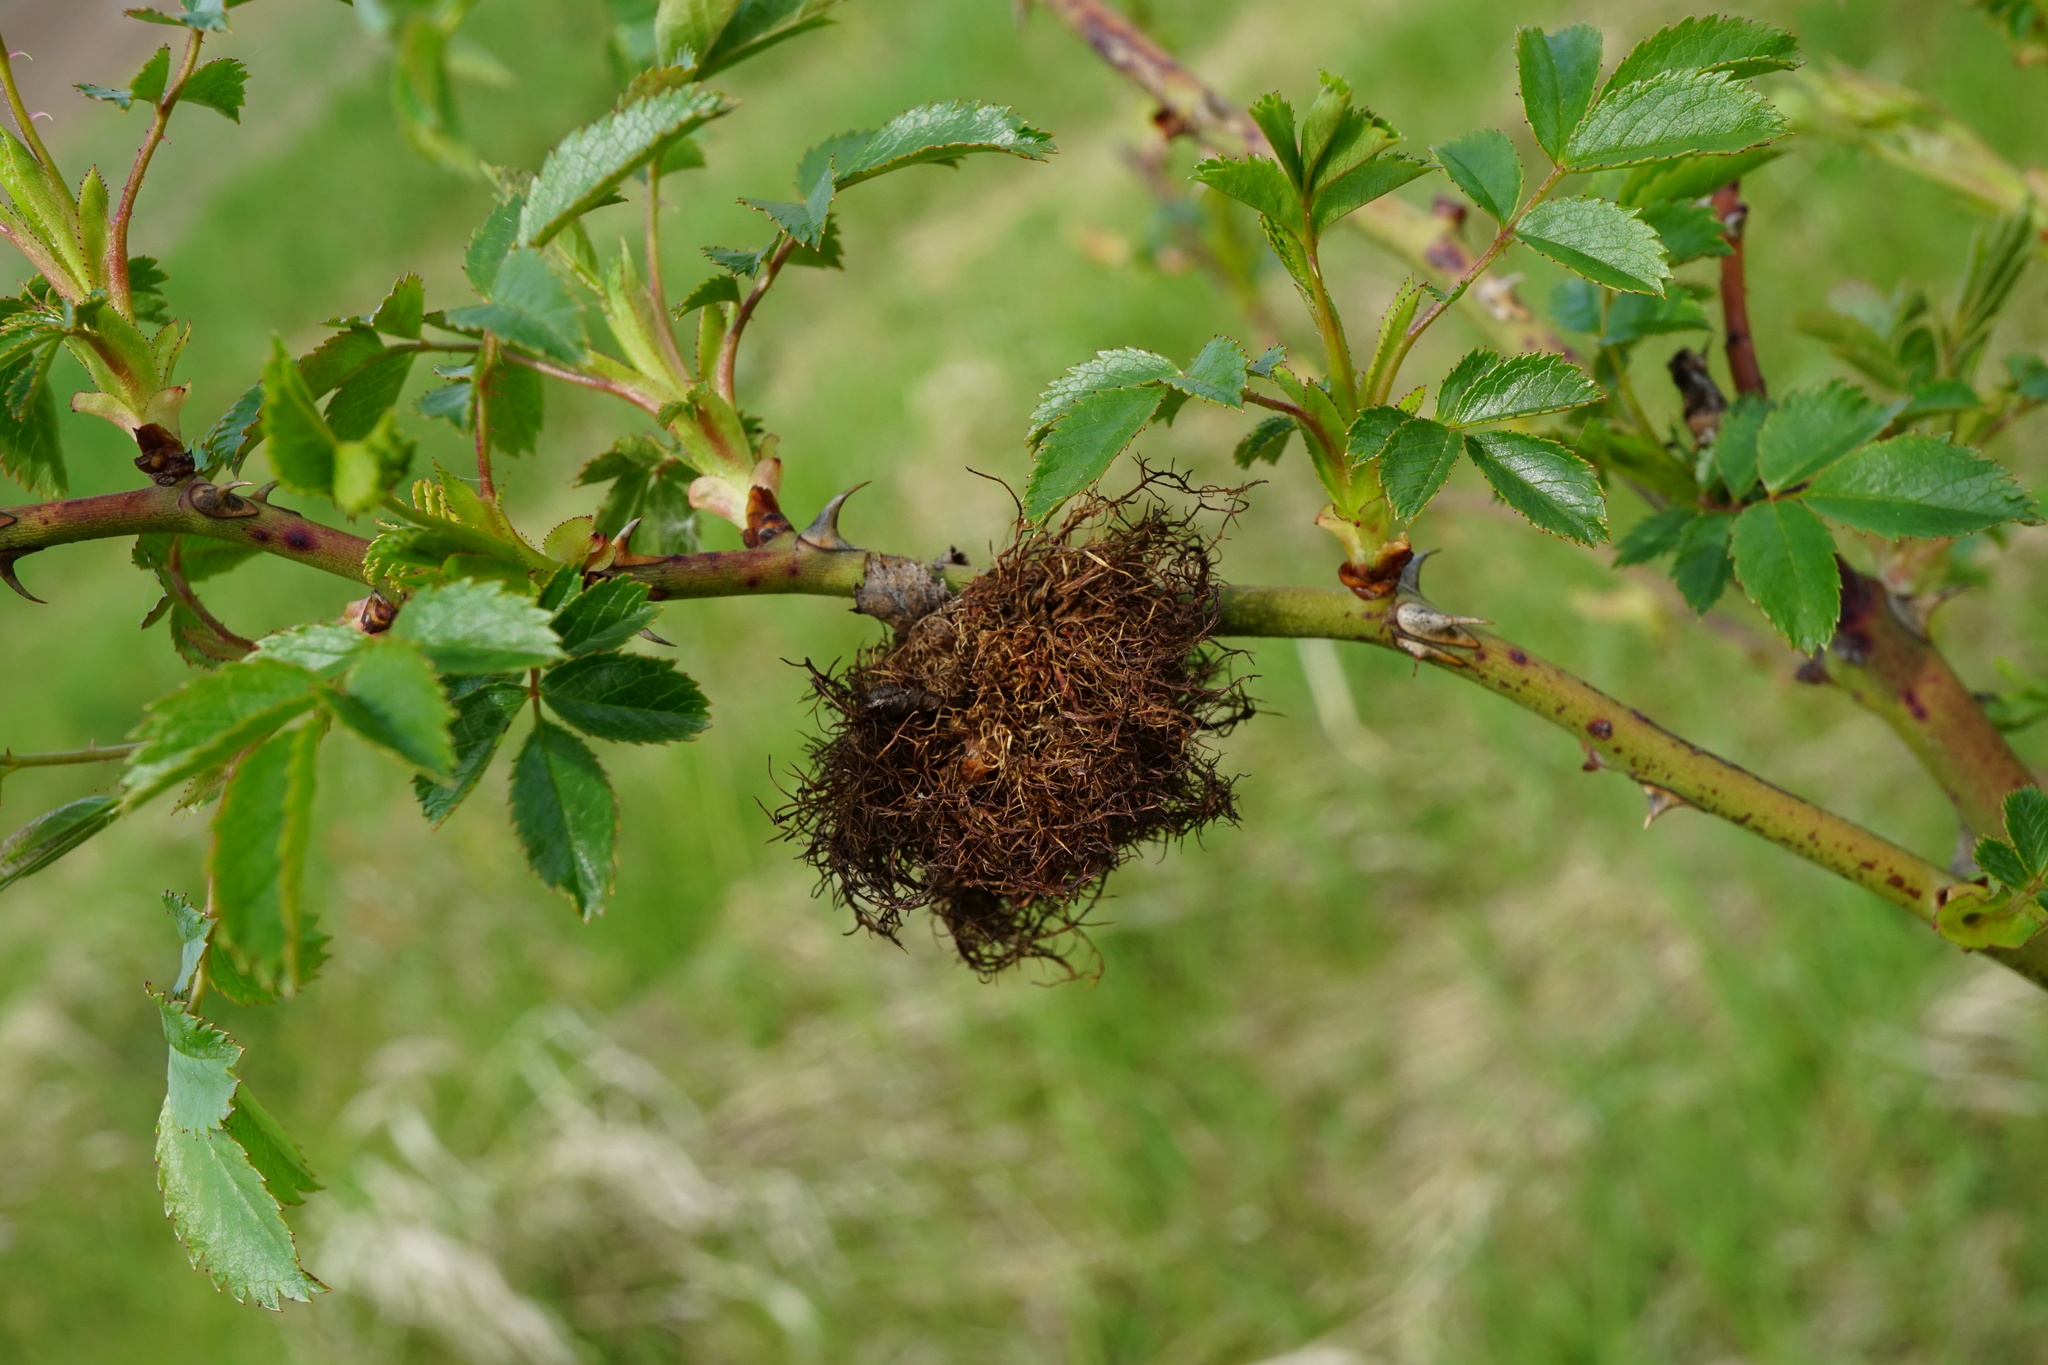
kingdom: Animalia
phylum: Arthropoda
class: Insecta
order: Hymenoptera
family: Cynipidae
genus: Diplolepis
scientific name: Diplolepis rosae
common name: Bedeguar gall
